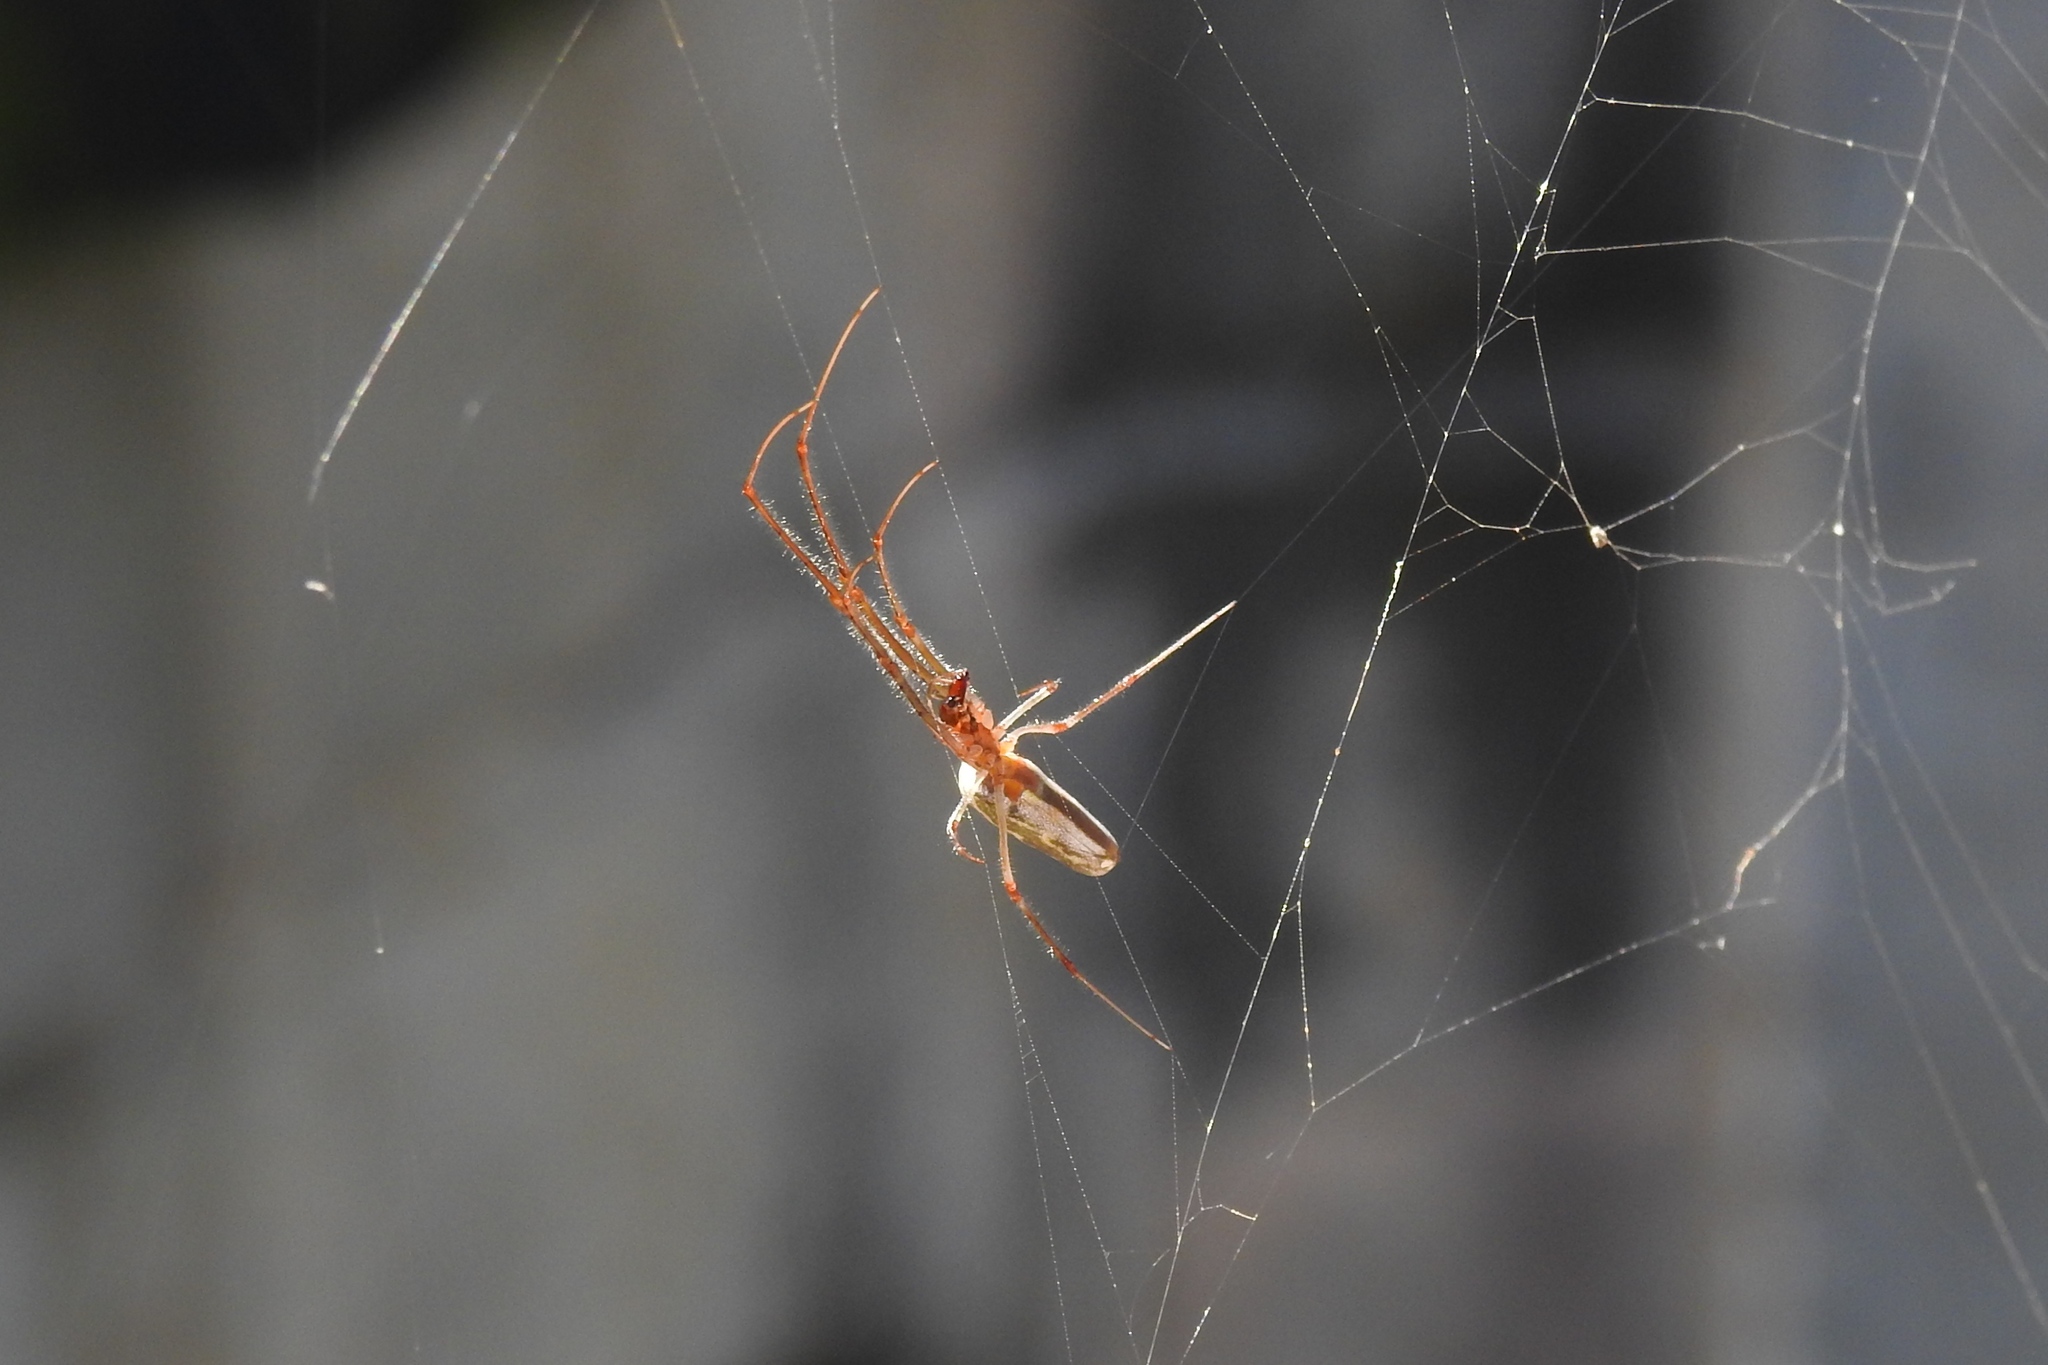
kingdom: Animalia
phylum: Arthropoda
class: Arachnida
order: Araneae
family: Tetragnathidae
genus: Tetragnatha
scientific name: Tetragnatha
